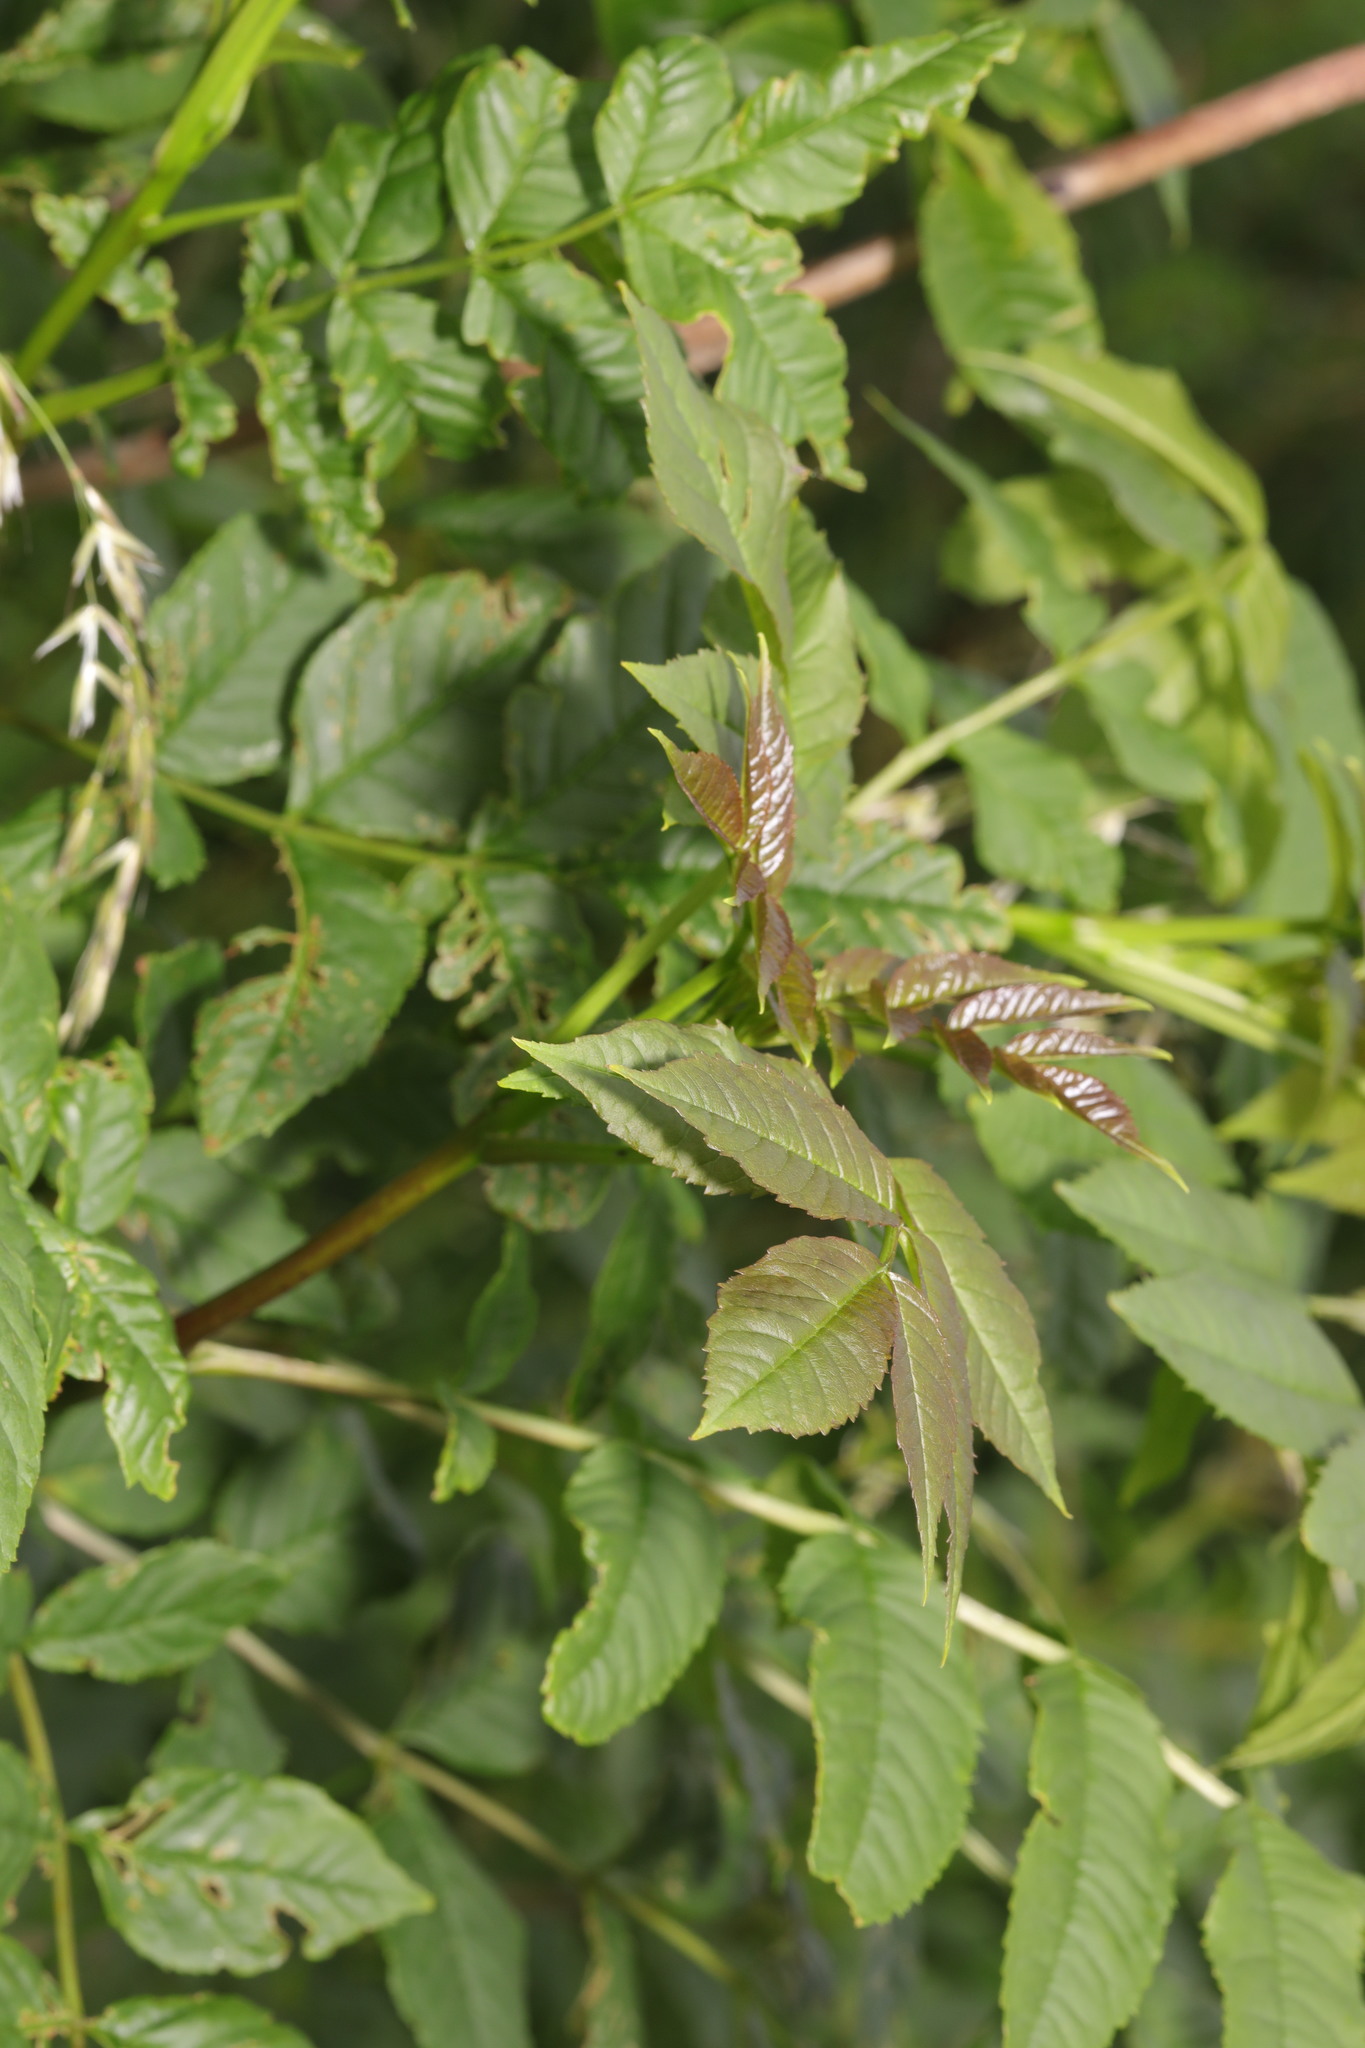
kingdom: Plantae
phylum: Tracheophyta
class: Magnoliopsida
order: Lamiales
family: Oleaceae
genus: Fraxinus
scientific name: Fraxinus excelsior
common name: European ash
